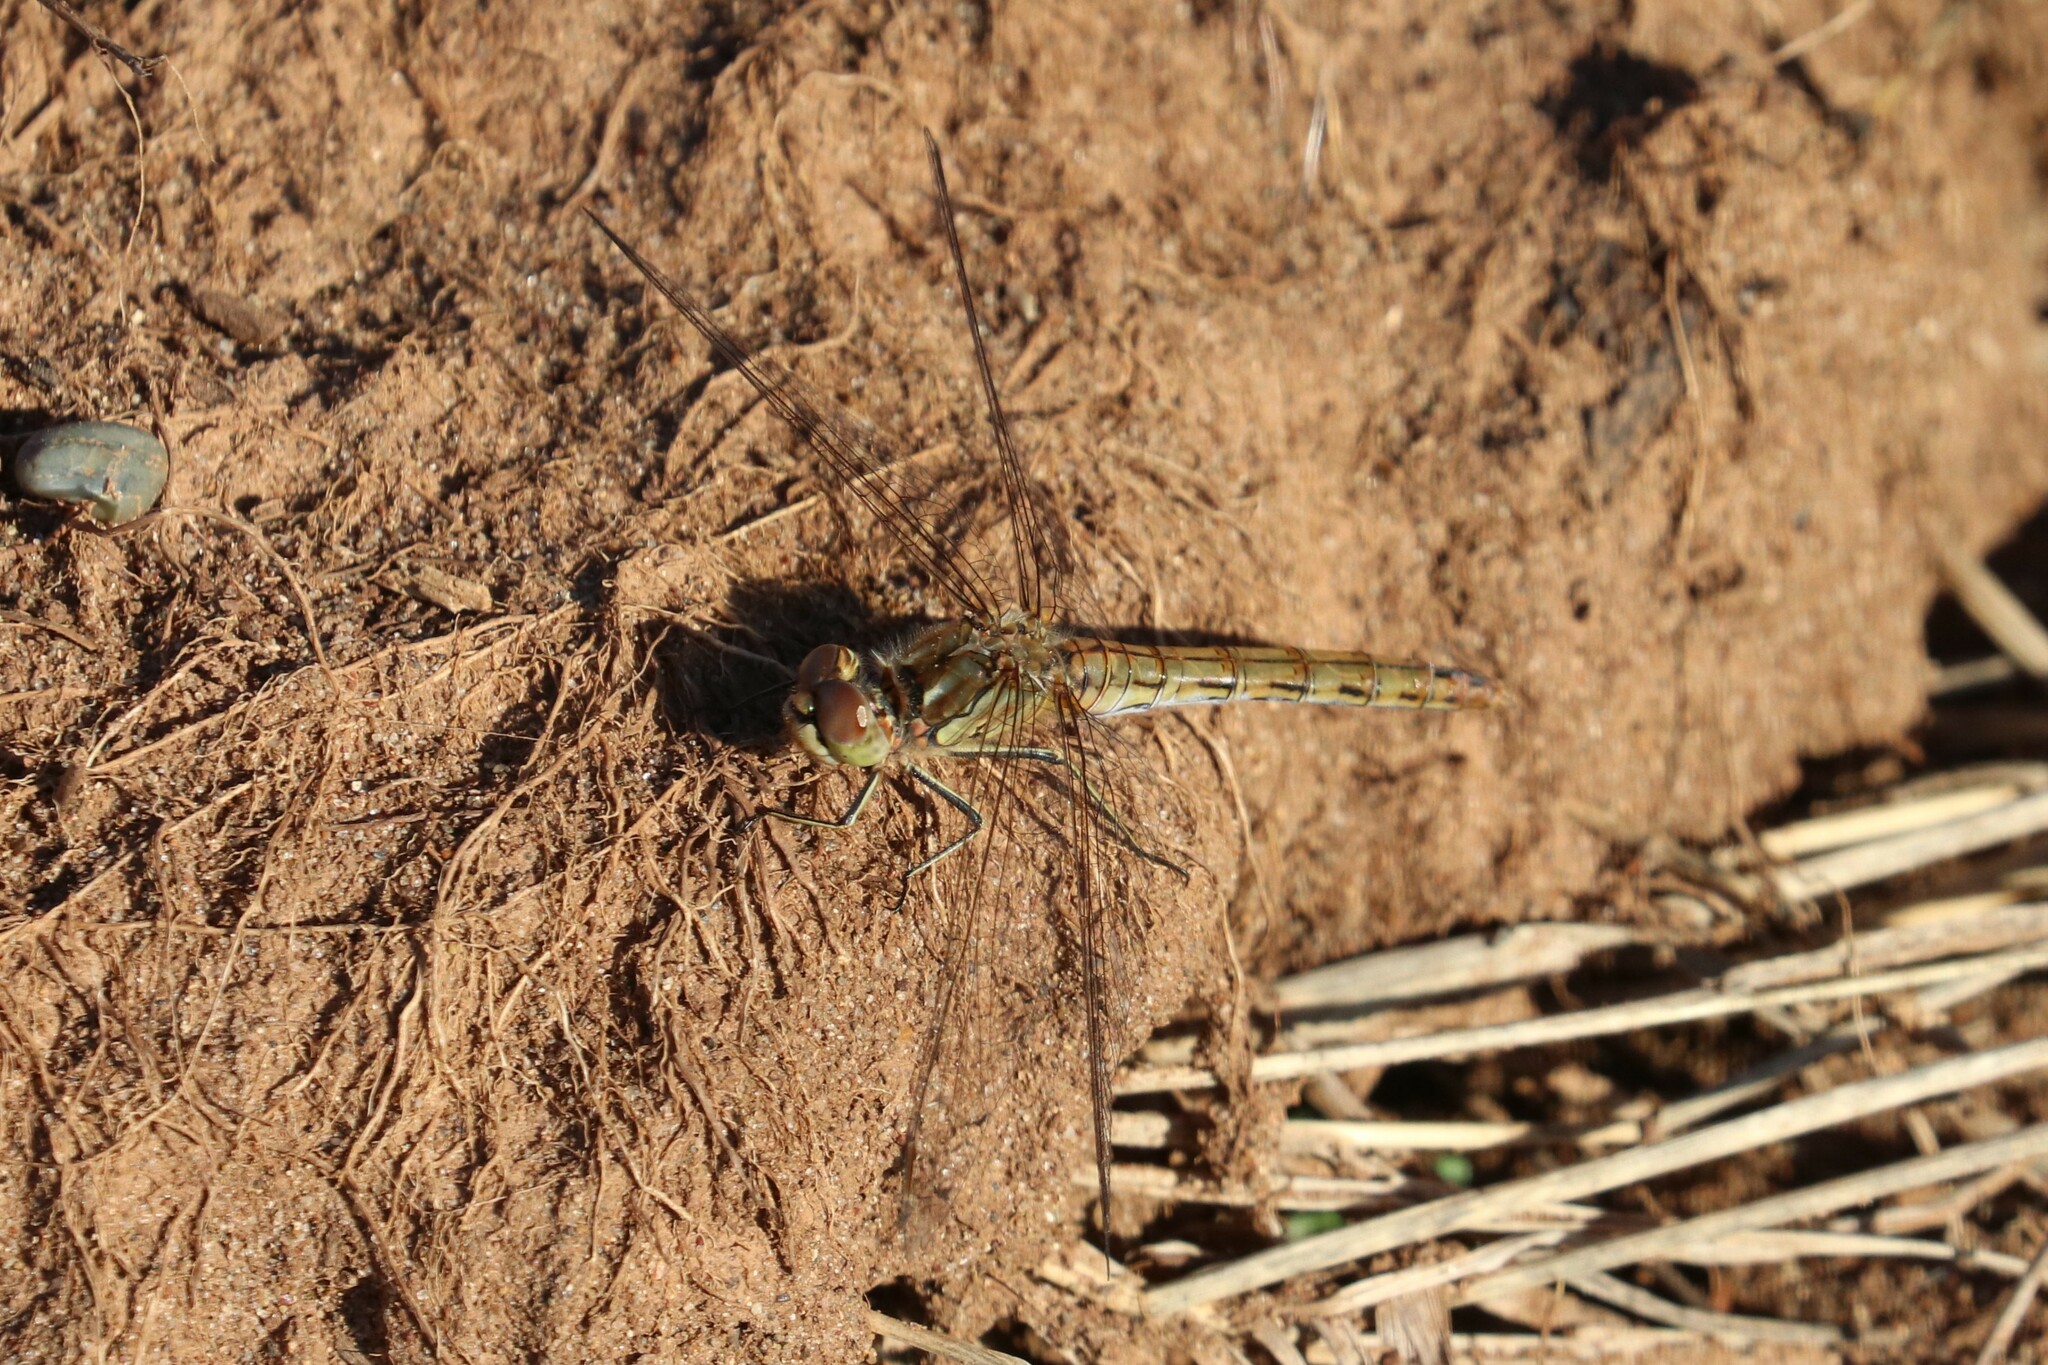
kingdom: Animalia
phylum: Arthropoda
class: Insecta
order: Odonata
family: Libellulidae
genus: Sympetrum
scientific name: Sympetrum vulgatum
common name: Vagrant darter
